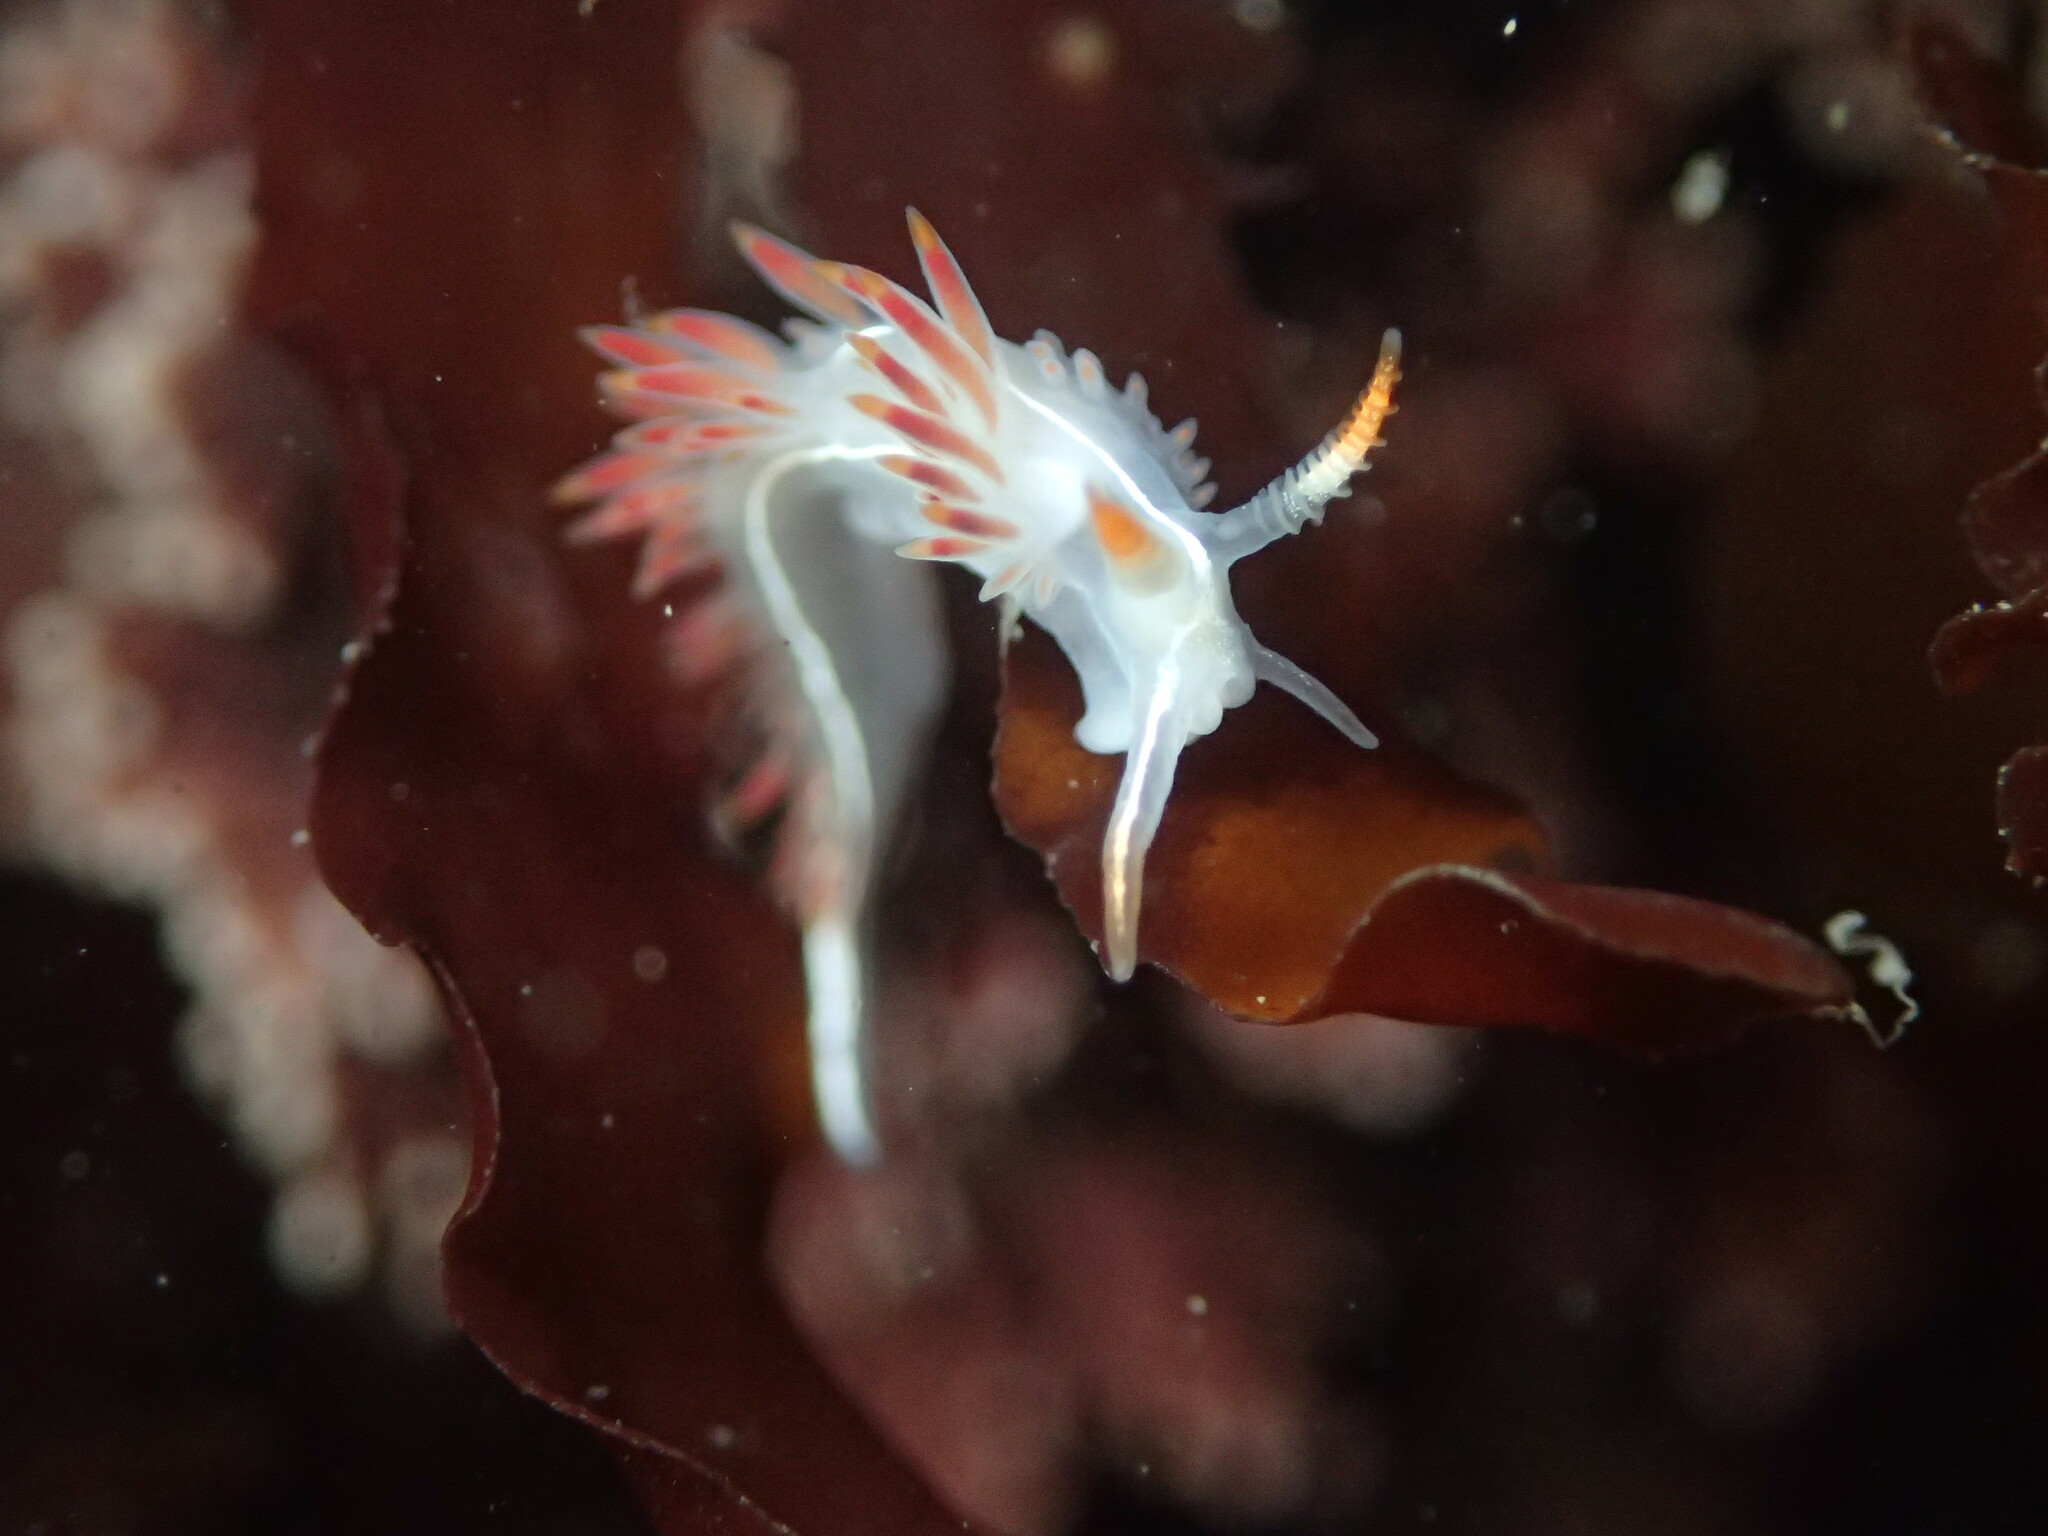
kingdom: Animalia
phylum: Mollusca
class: Gastropoda
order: Nudibranchia
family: Coryphellidae
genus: Coryphella
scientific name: Coryphella trilineata
